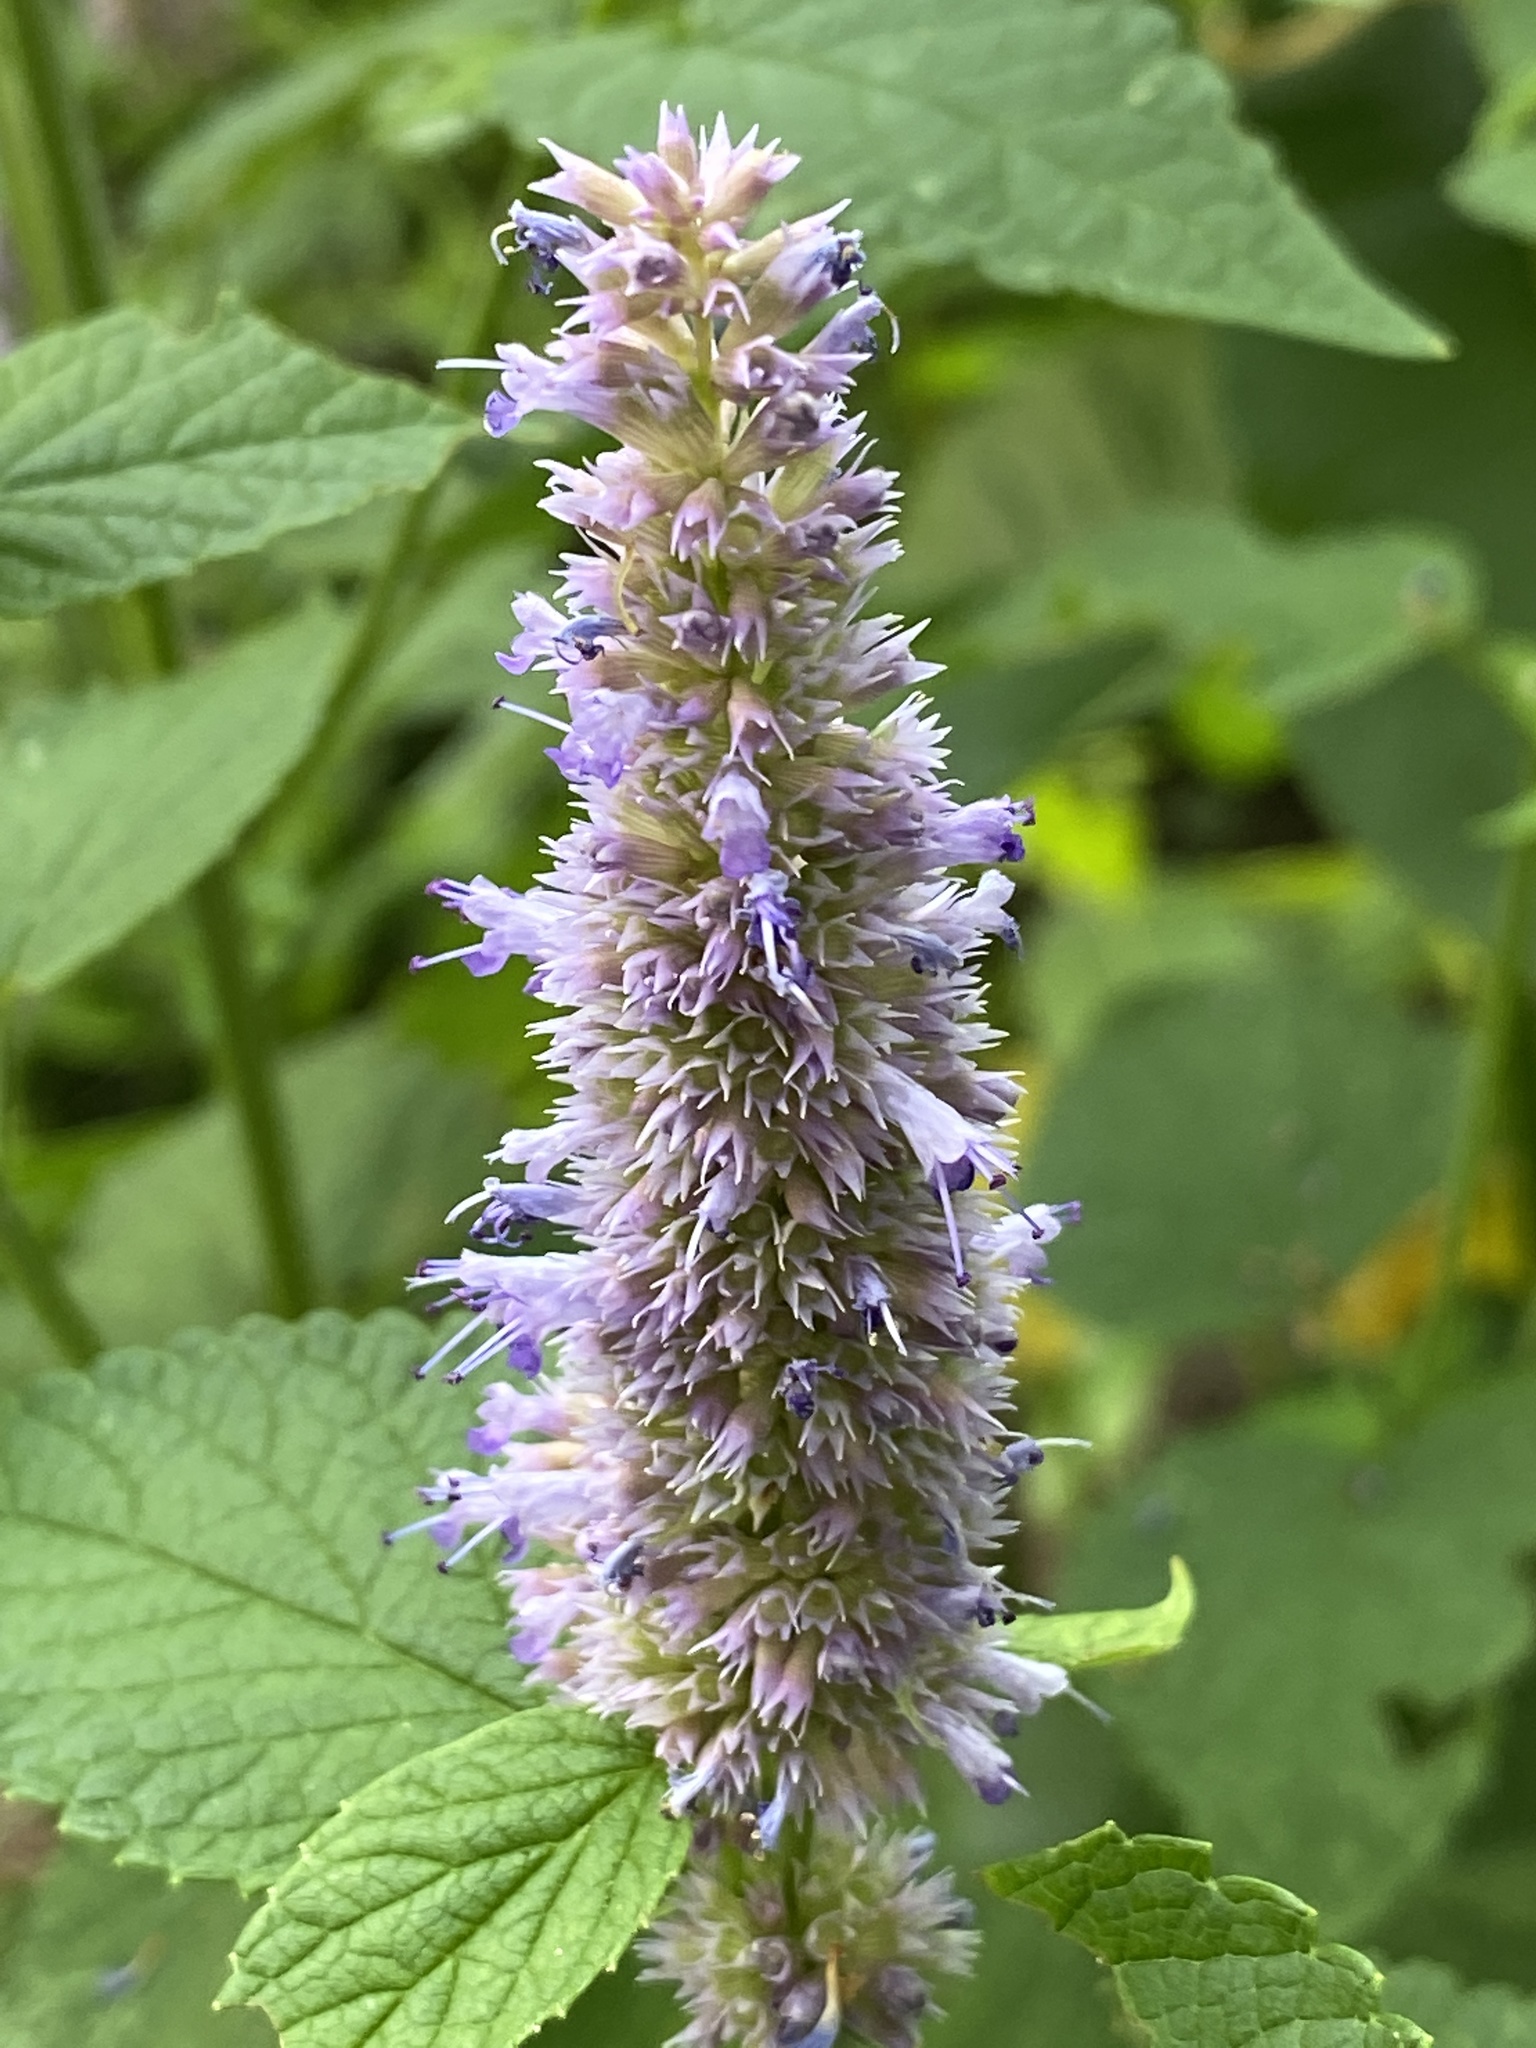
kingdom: Plantae
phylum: Tracheophyta
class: Magnoliopsida
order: Lamiales
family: Lamiaceae
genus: Agastache
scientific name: Agastache foeniculum
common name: Anise hyssop
